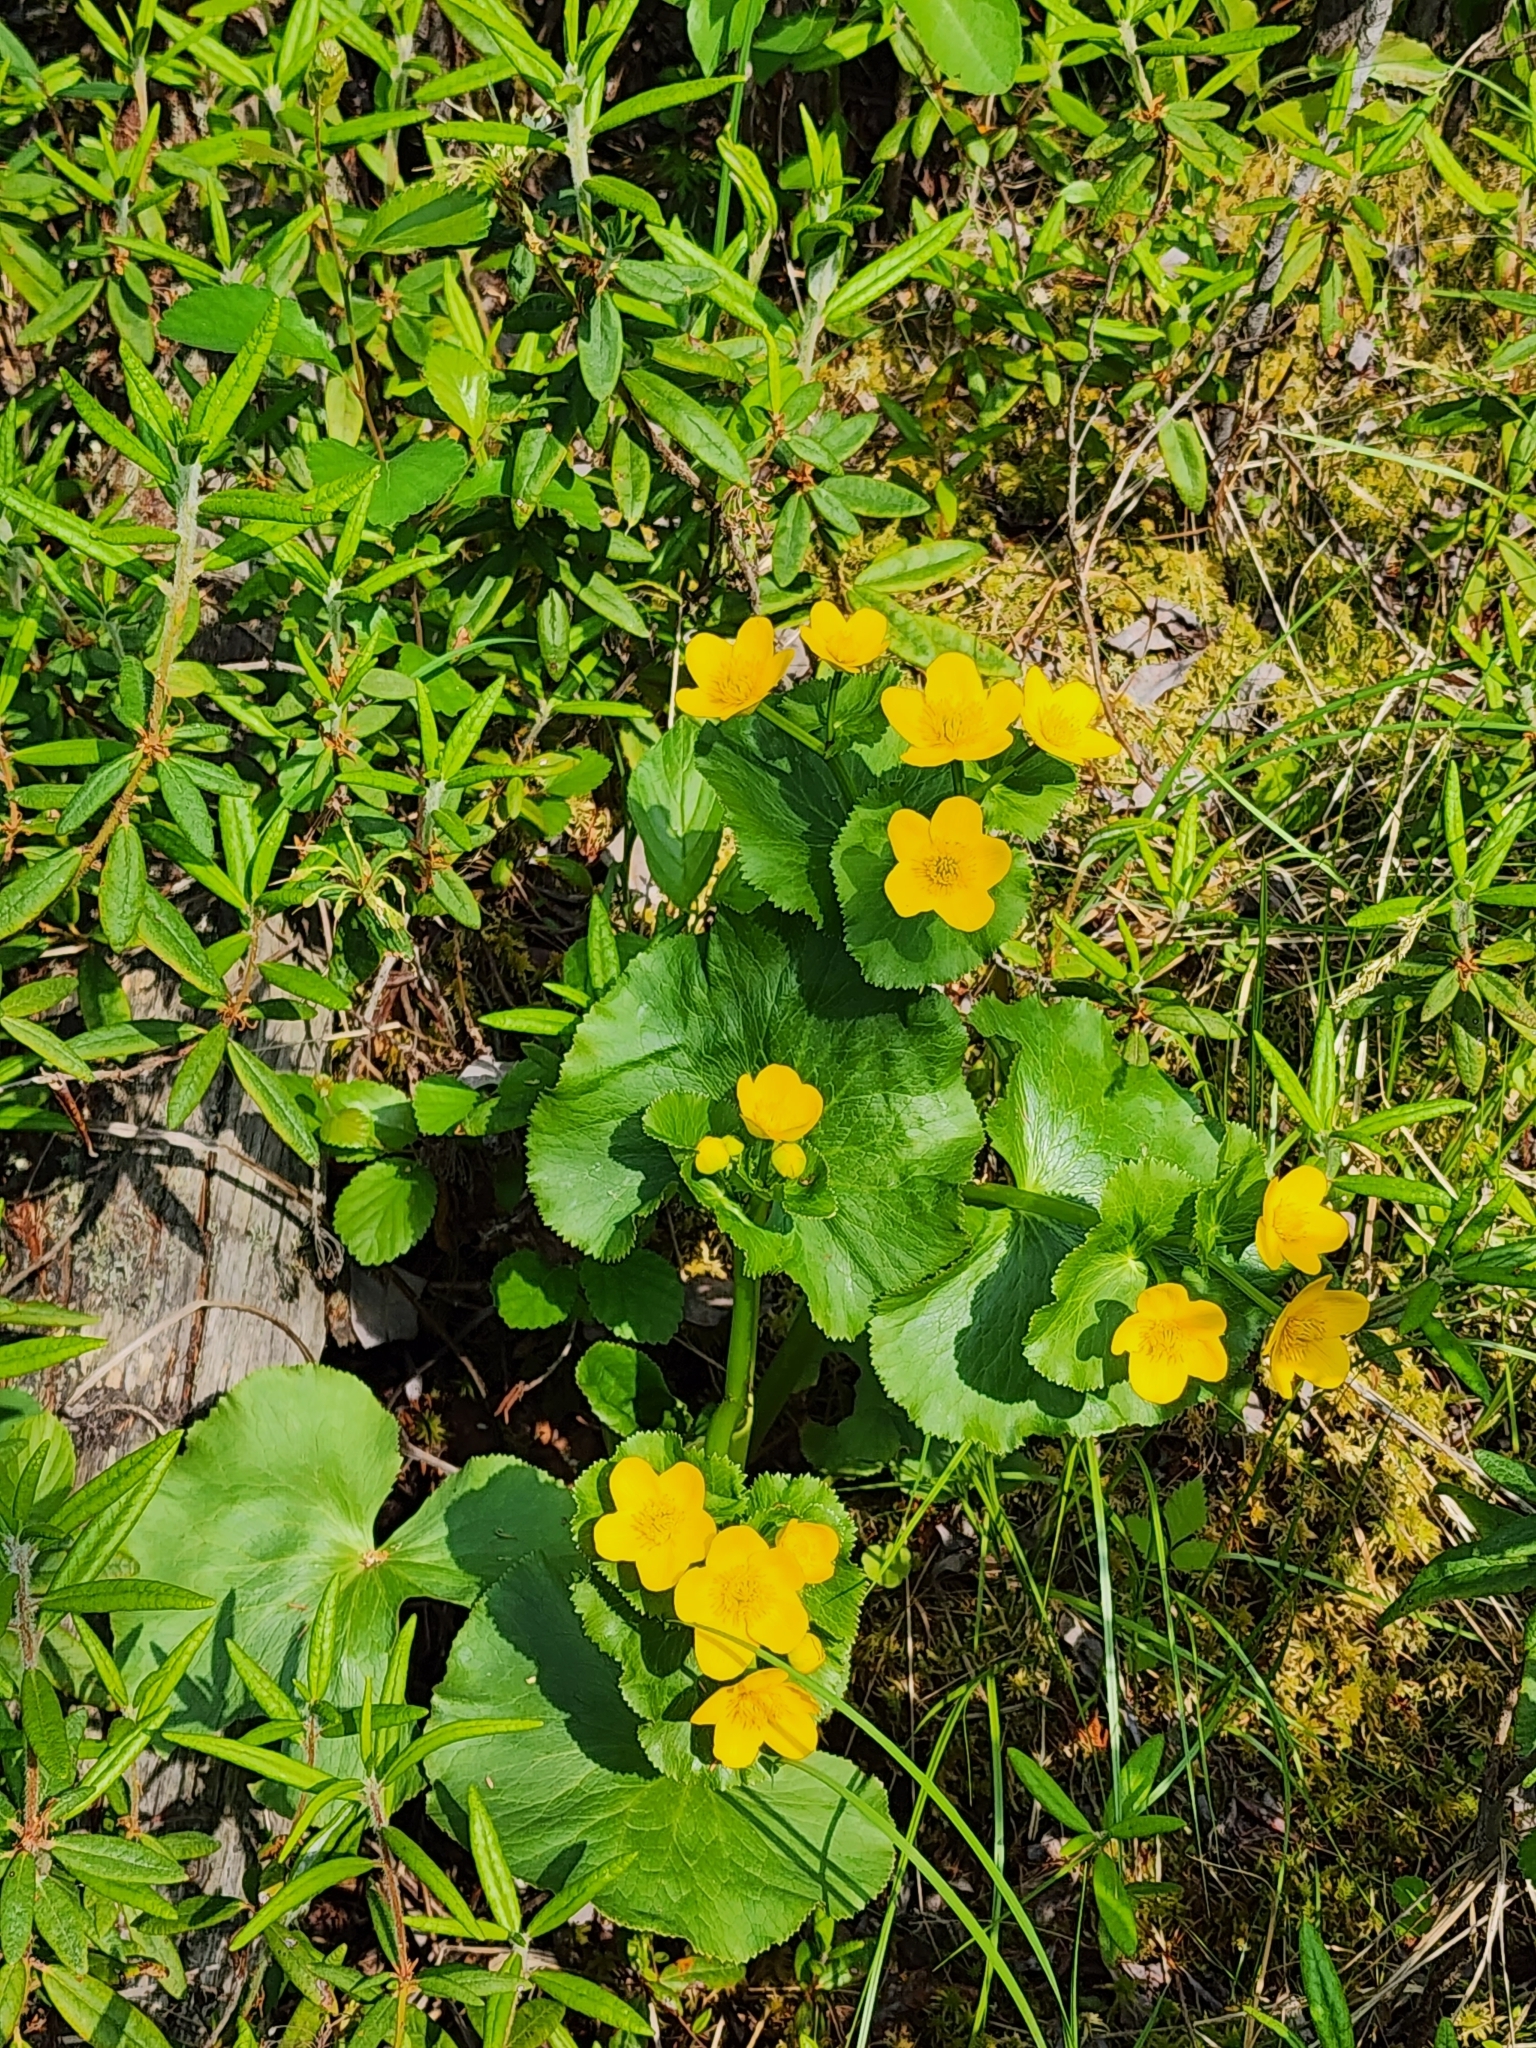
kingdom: Plantae
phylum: Tracheophyta
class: Magnoliopsida
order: Ranunculales
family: Ranunculaceae
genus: Caltha
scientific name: Caltha palustris
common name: Marsh marigold
